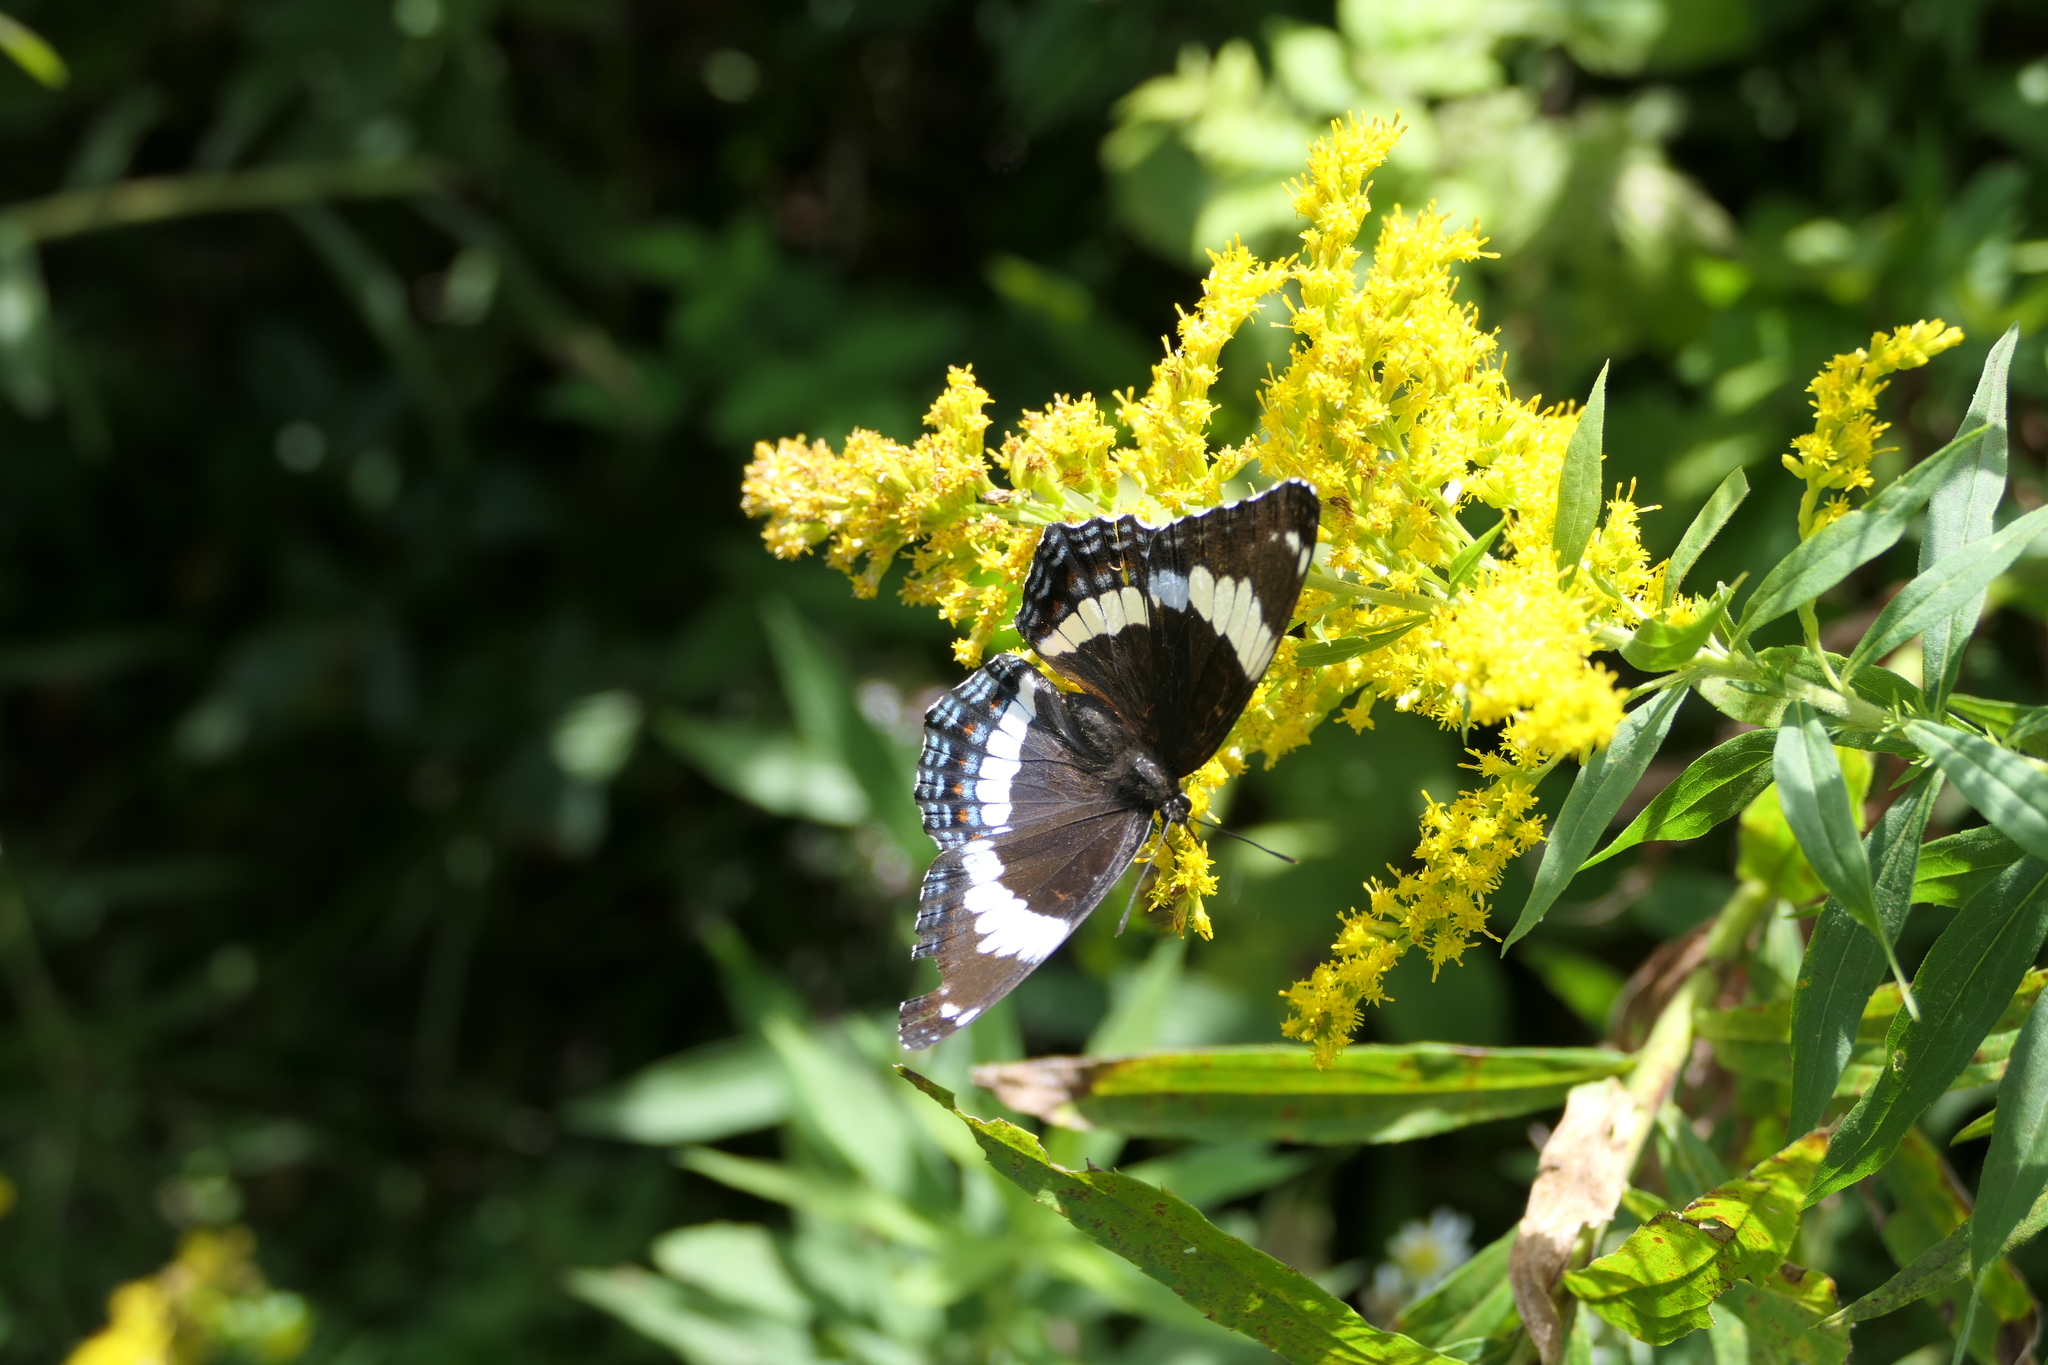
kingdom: Animalia
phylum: Arthropoda
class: Insecta
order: Lepidoptera
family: Nymphalidae
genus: Limenitis
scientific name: Limenitis arthemis
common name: Red-spotted admiral
